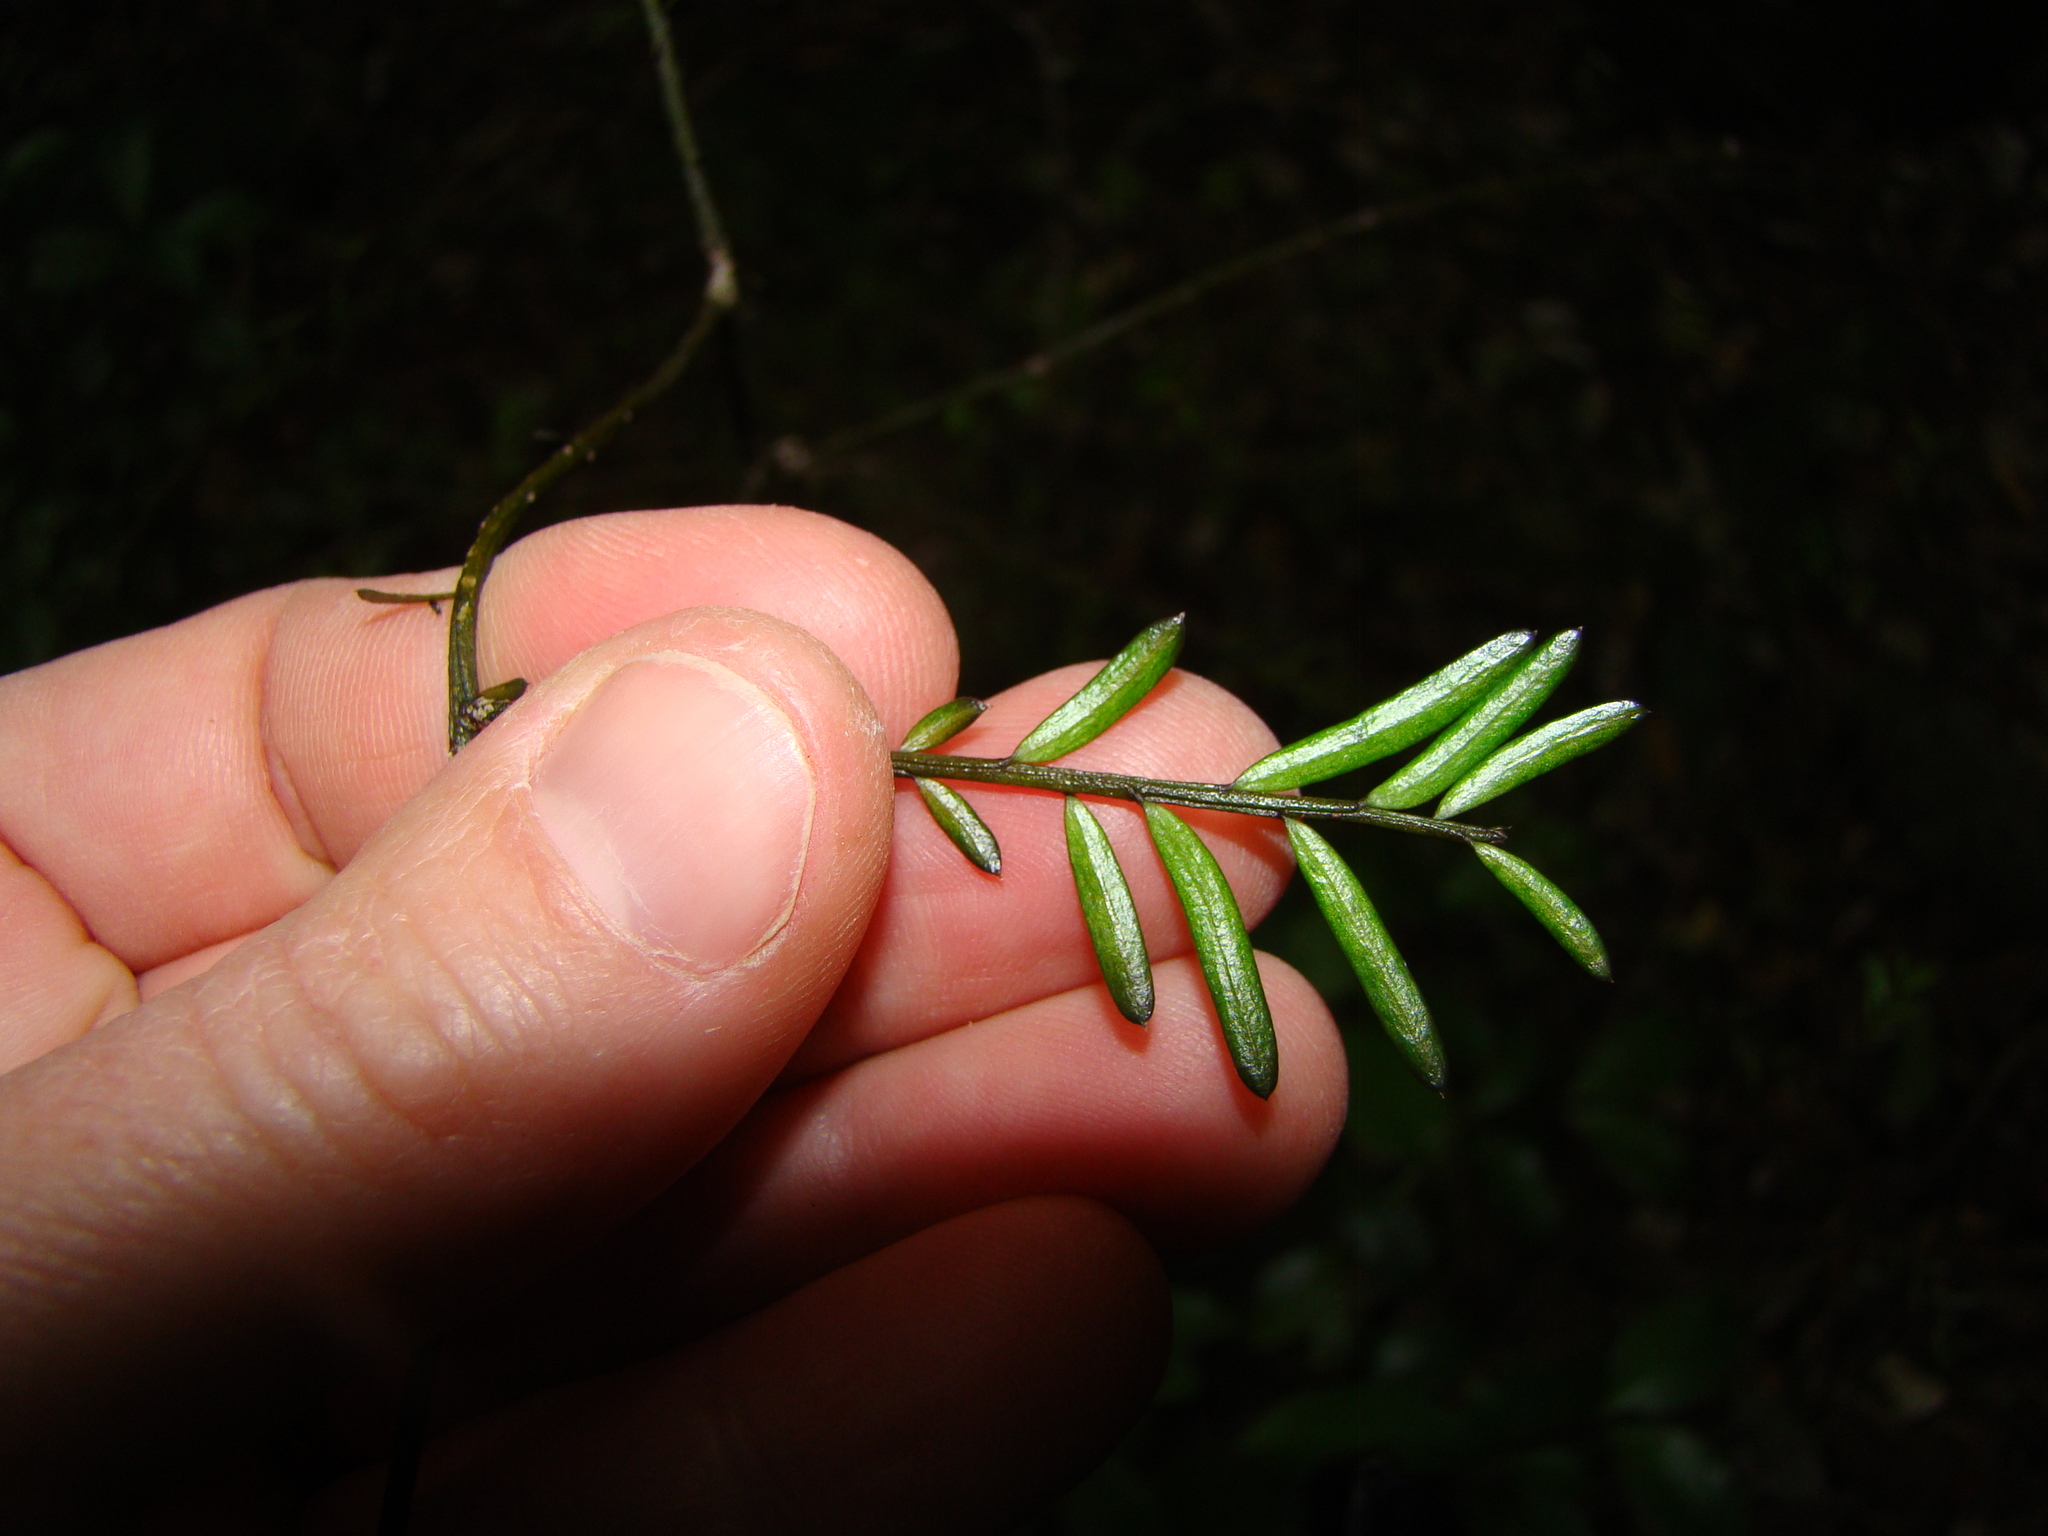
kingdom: Plantae
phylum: Tracheophyta
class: Pinopsida
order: Pinales
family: Podocarpaceae
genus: Prumnopitys
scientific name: Prumnopitys taxifolia
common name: Matai
